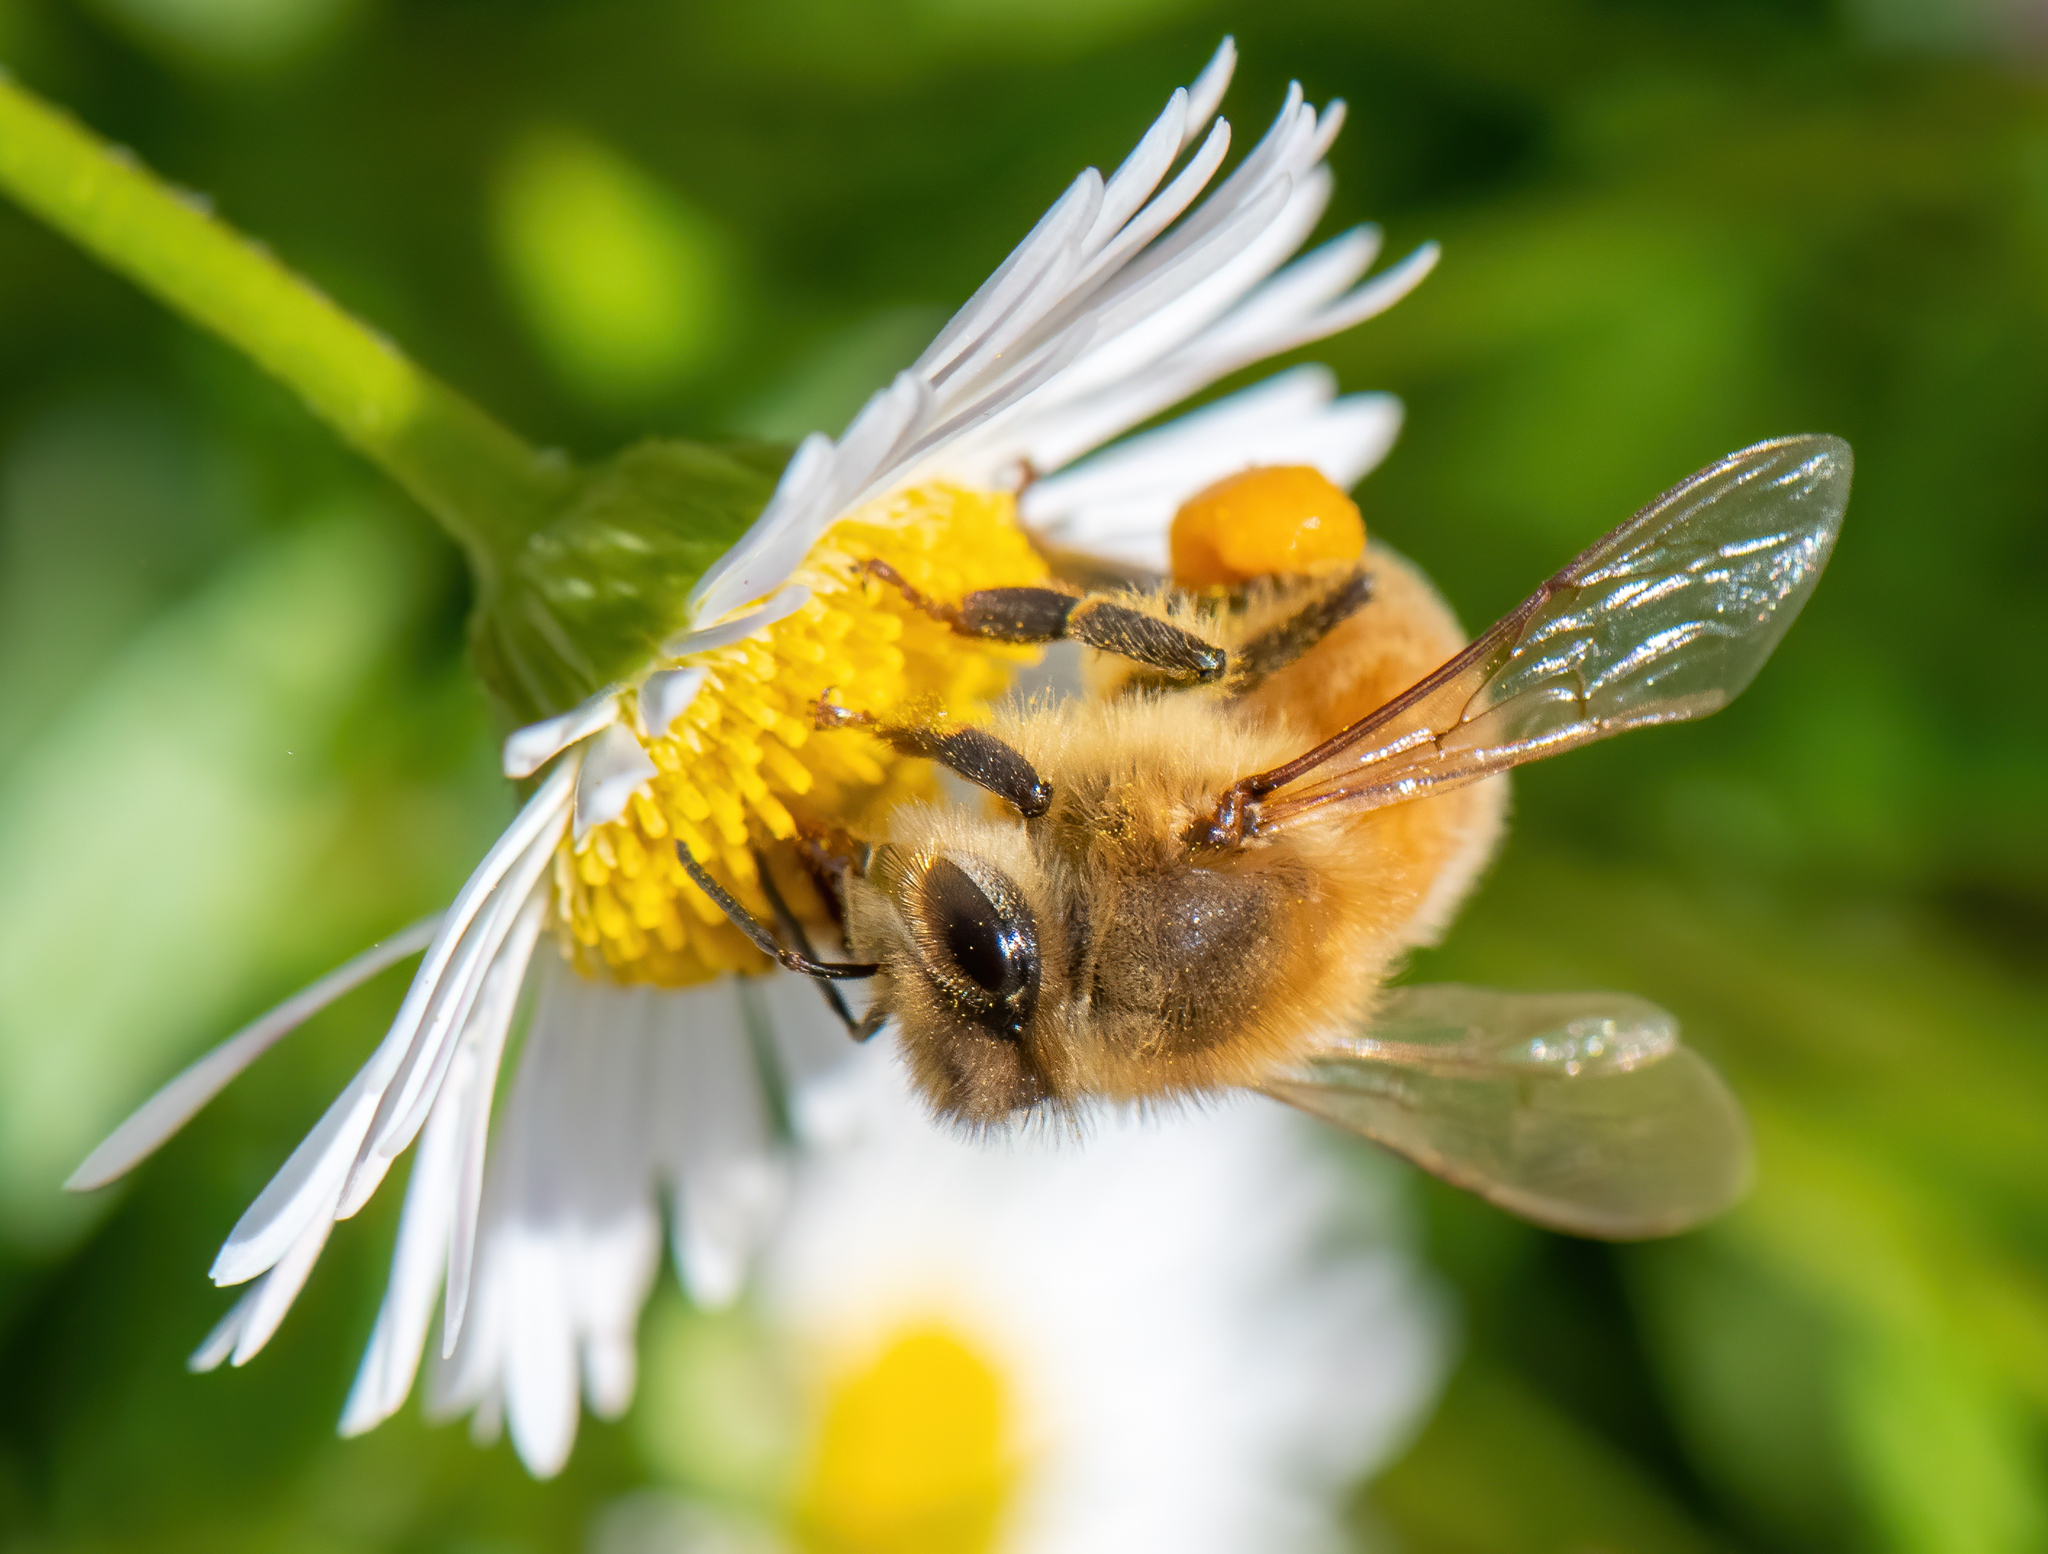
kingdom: Animalia
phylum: Arthropoda
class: Insecta
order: Hymenoptera
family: Apidae
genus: Apis
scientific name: Apis mellifera
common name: Honey bee
